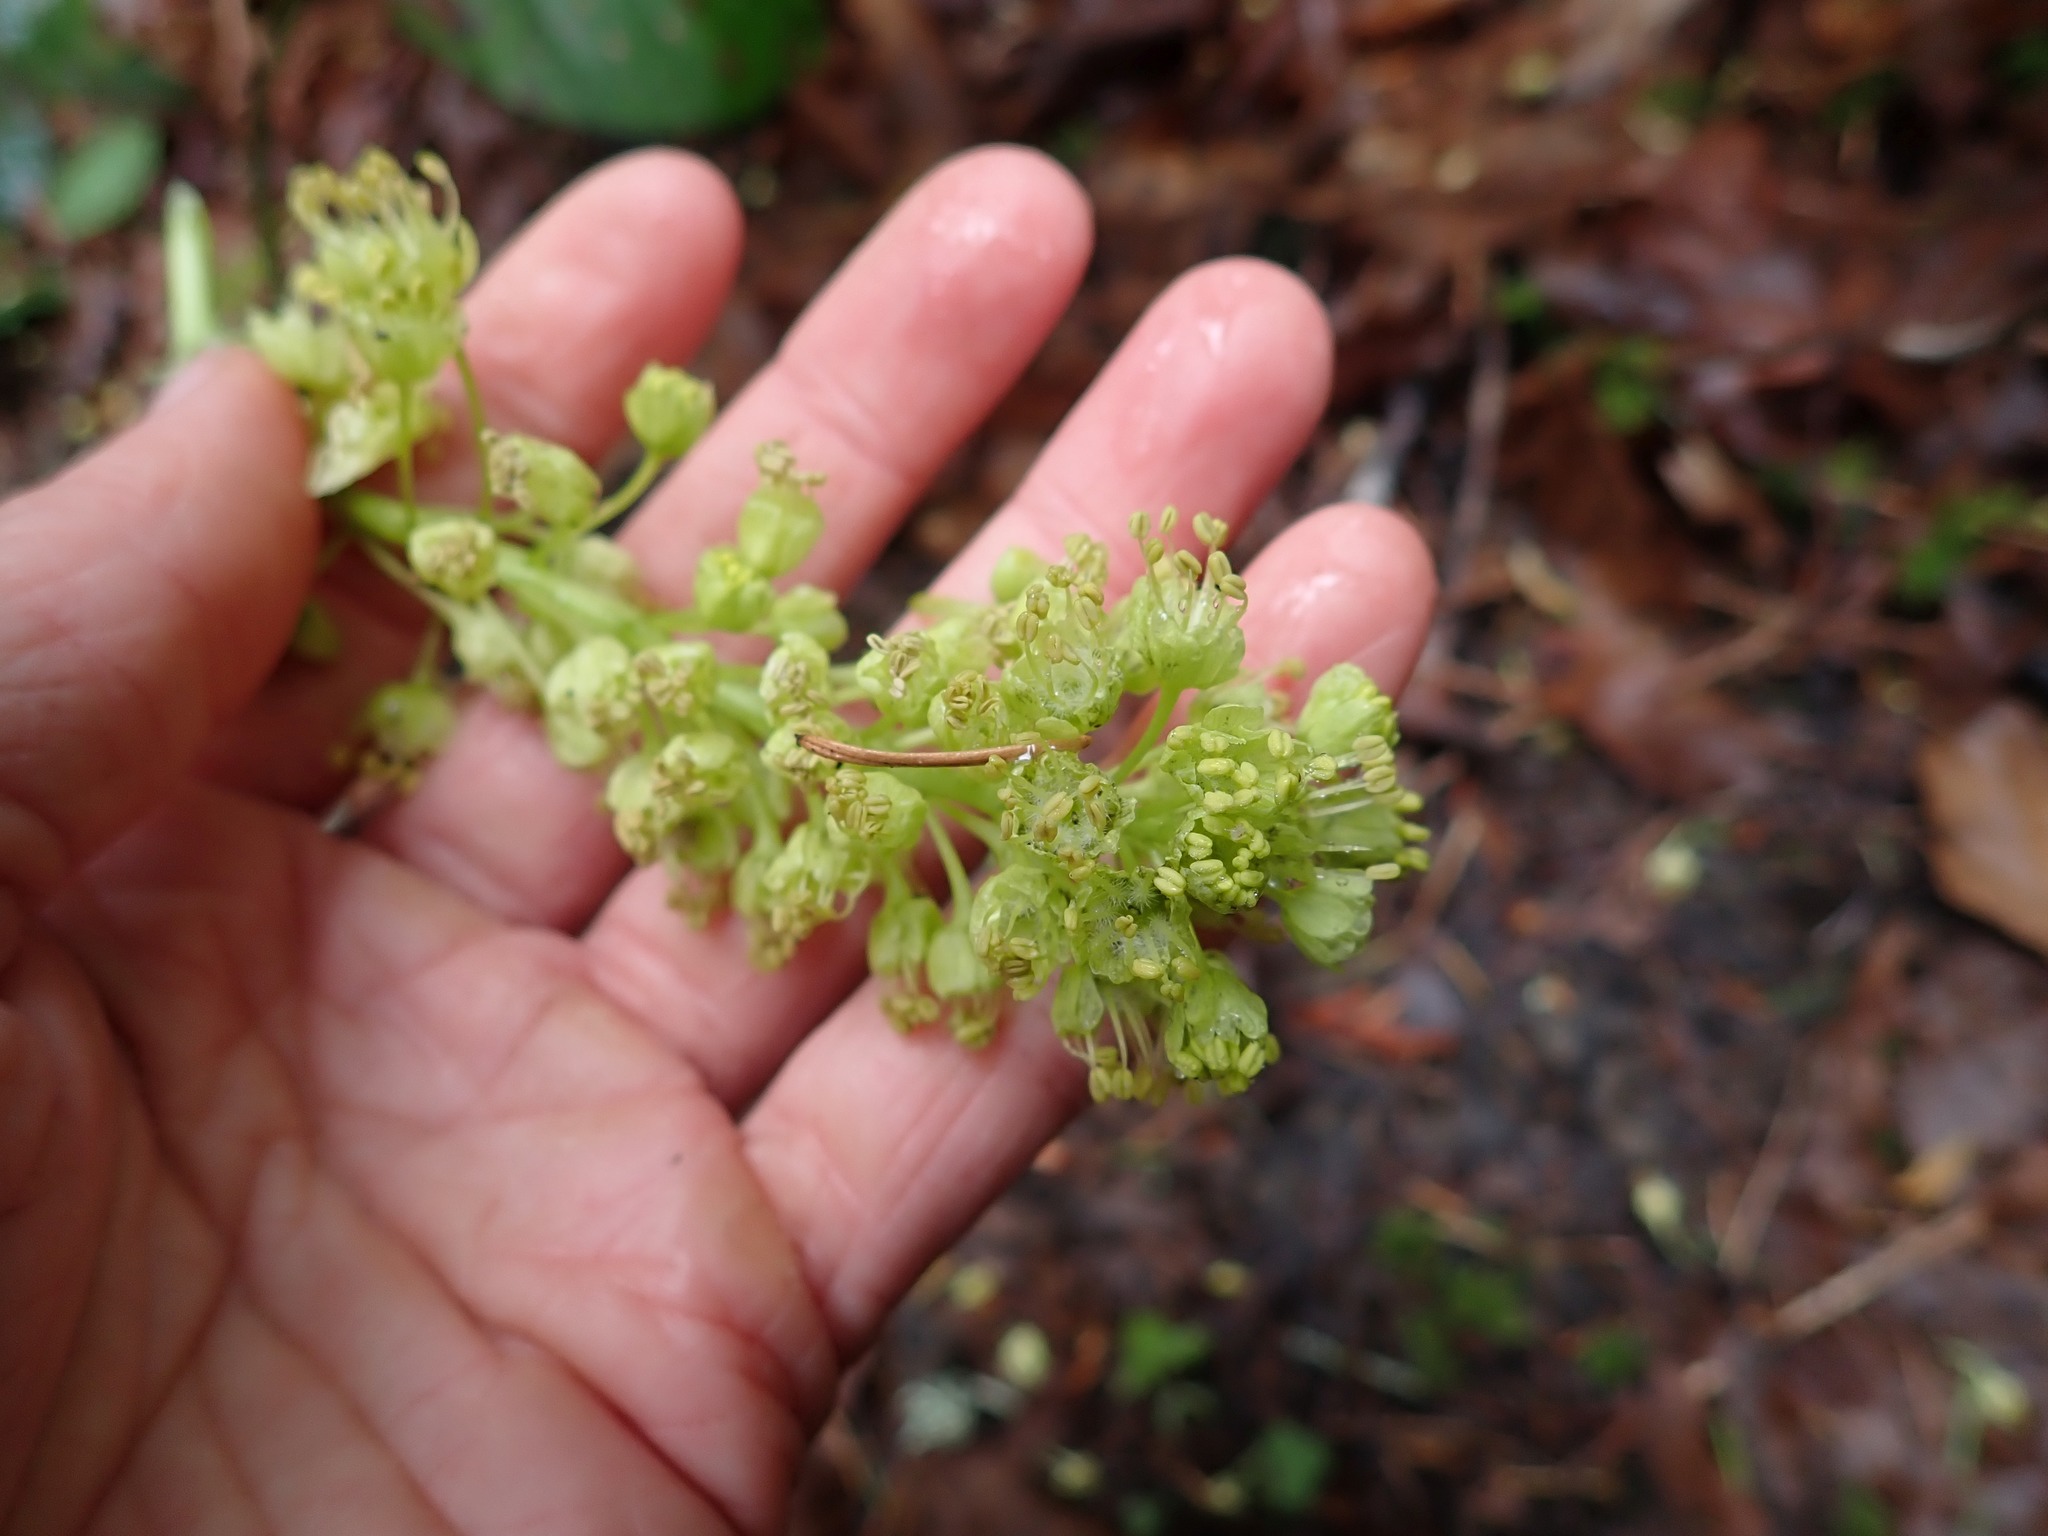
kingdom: Plantae
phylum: Tracheophyta
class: Magnoliopsida
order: Sapindales
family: Sapindaceae
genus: Acer
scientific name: Acer macrophyllum
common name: Oregon maple
